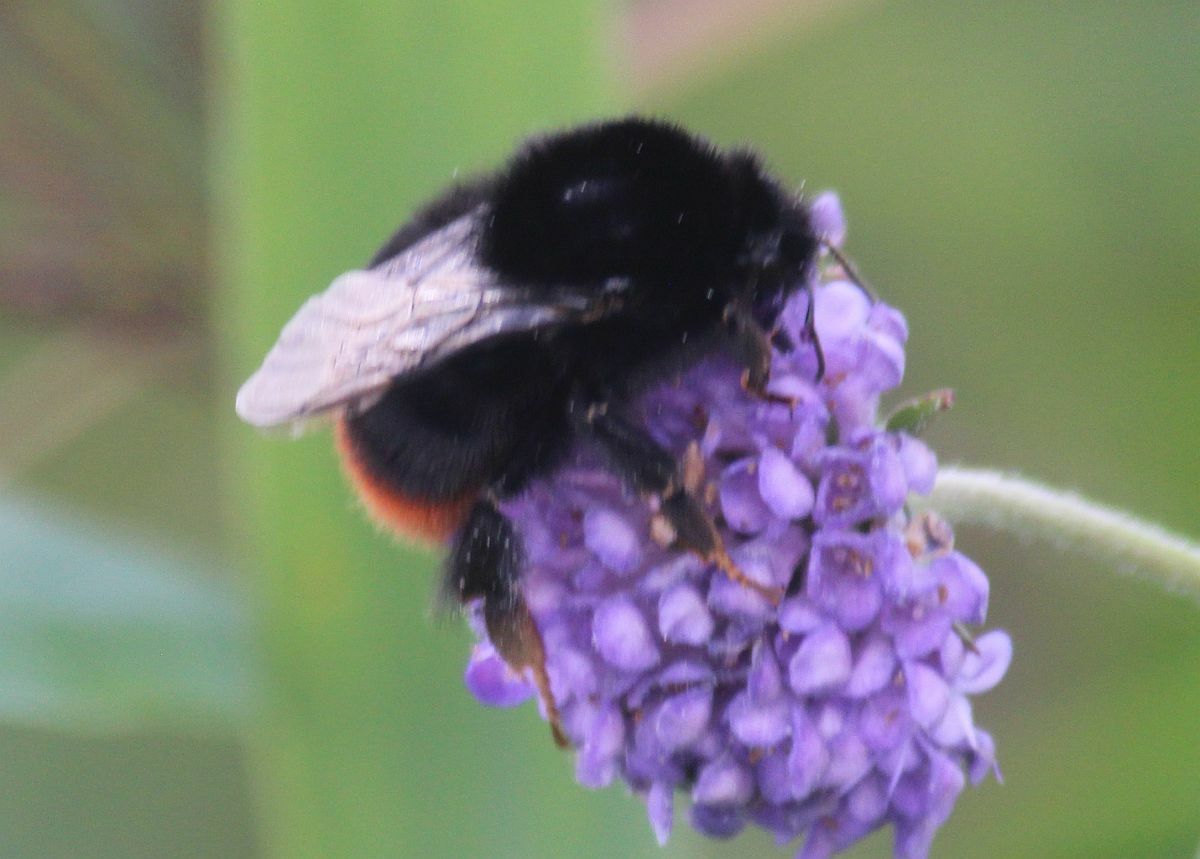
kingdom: Animalia
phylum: Arthropoda
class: Insecta
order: Hymenoptera
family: Apidae
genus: Bombus
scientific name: Bombus lapidarius
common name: Large red-tailed humble-bee
